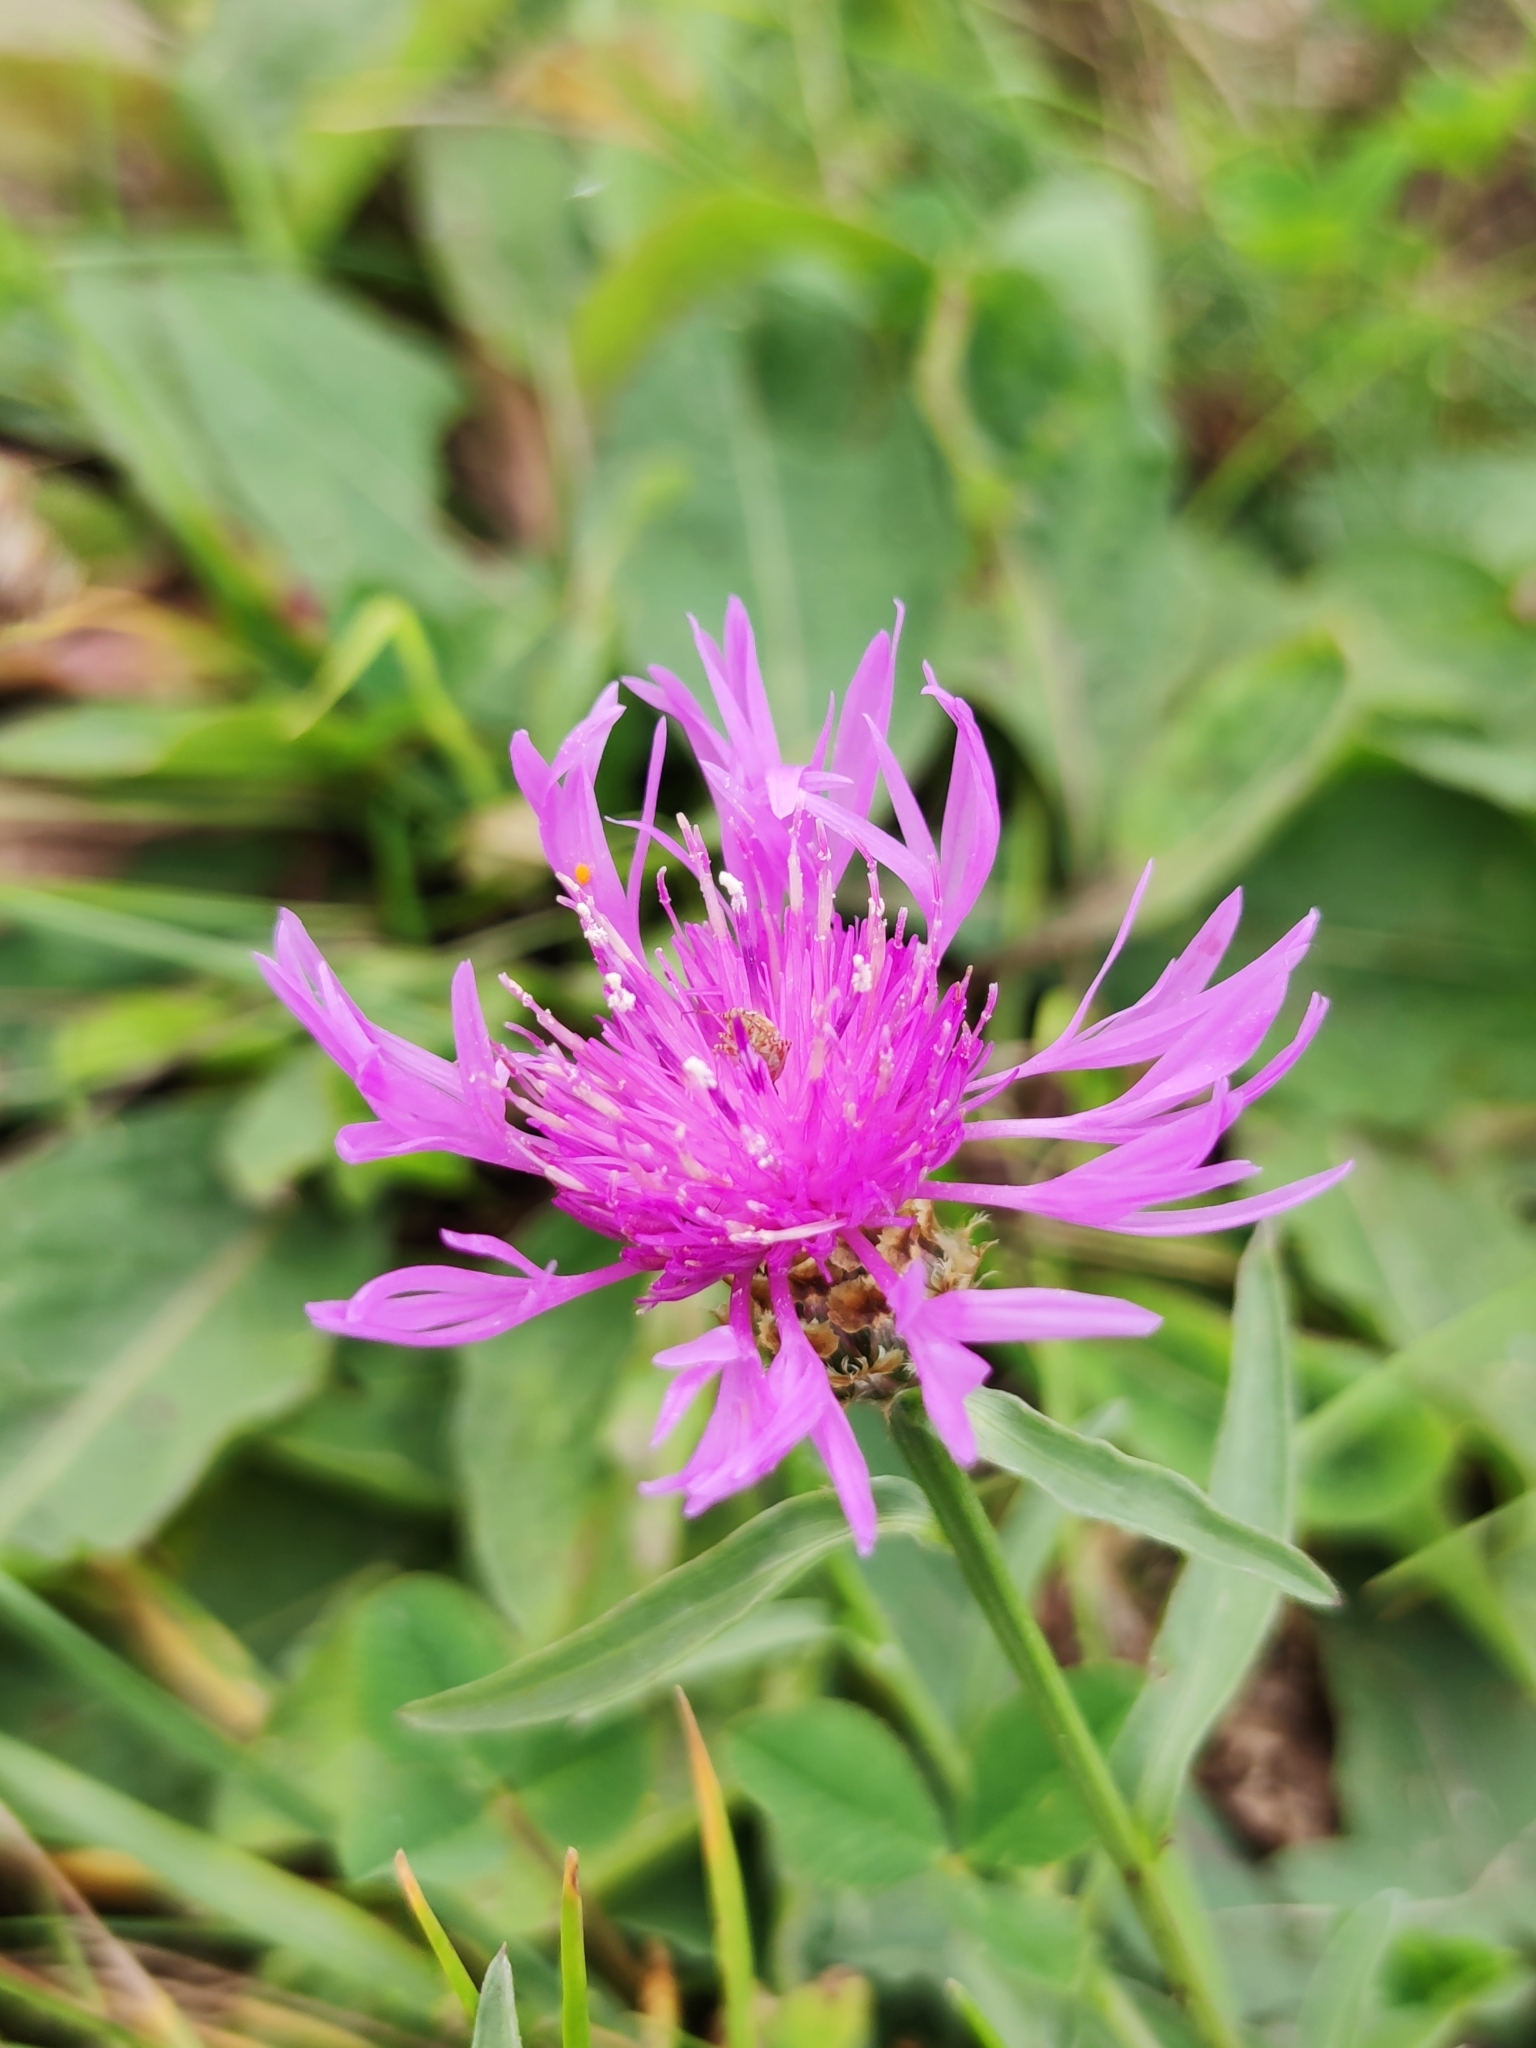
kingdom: Plantae
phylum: Tracheophyta
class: Magnoliopsida
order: Asterales
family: Asteraceae
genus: Centaurea
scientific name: Centaurea jacea
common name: Brown knapweed
